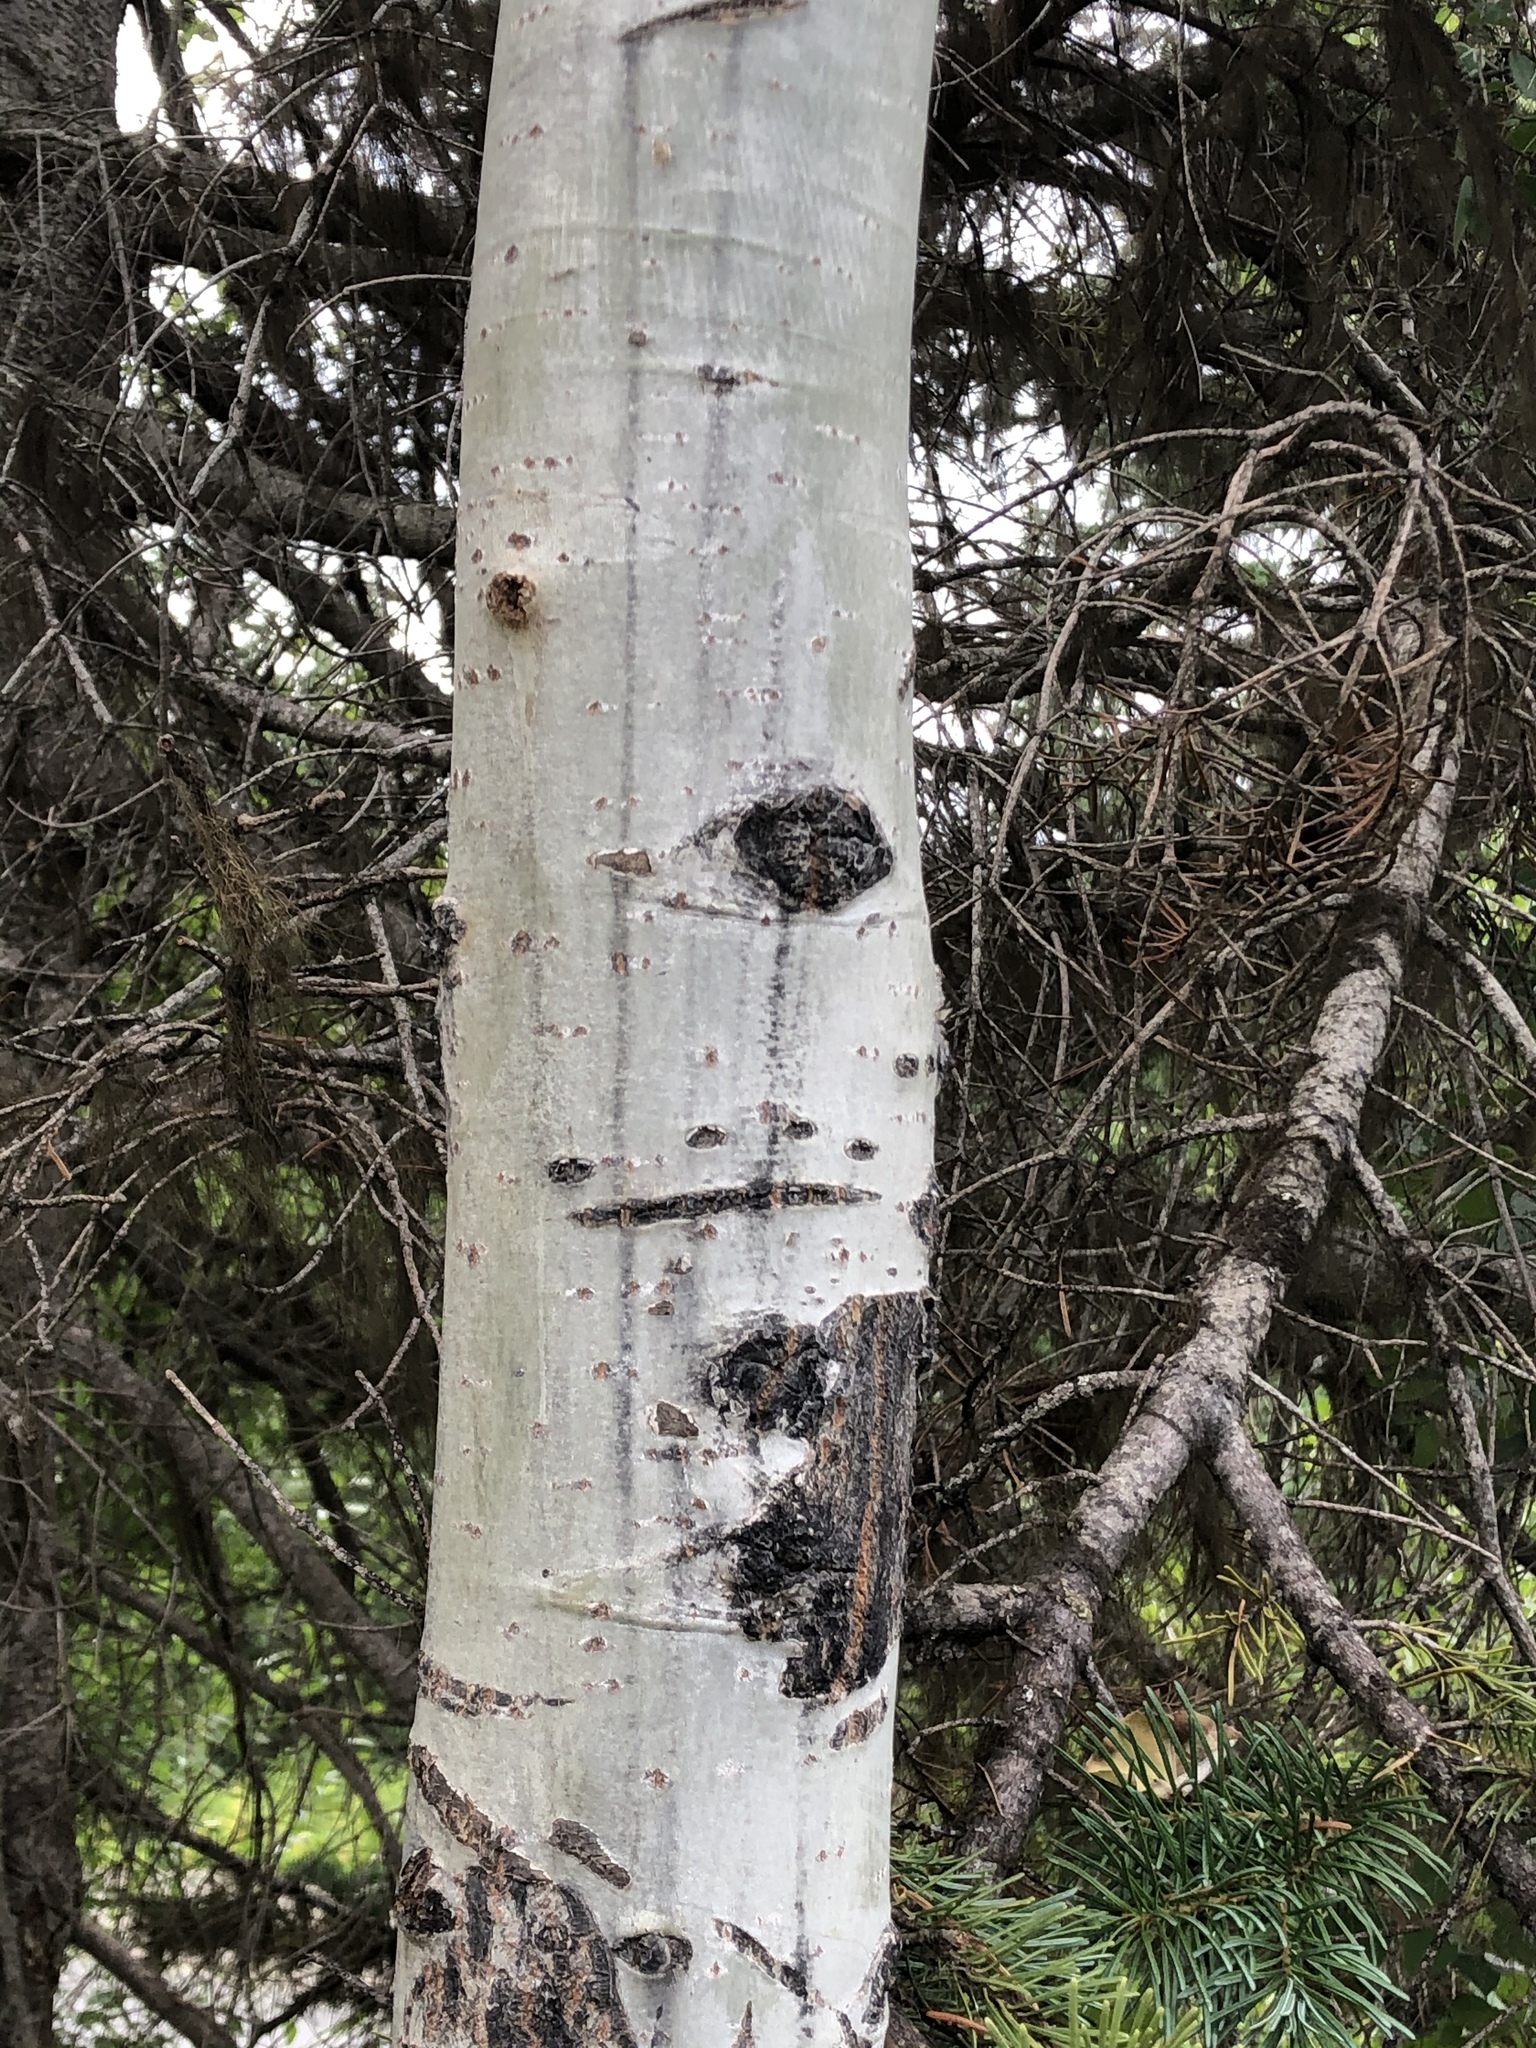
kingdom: Plantae
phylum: Tracheophyta
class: Magnoliopsida
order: Malpighiales
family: Salicaceae
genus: Populus
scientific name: Populus tremuloides
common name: Quaking aspen
